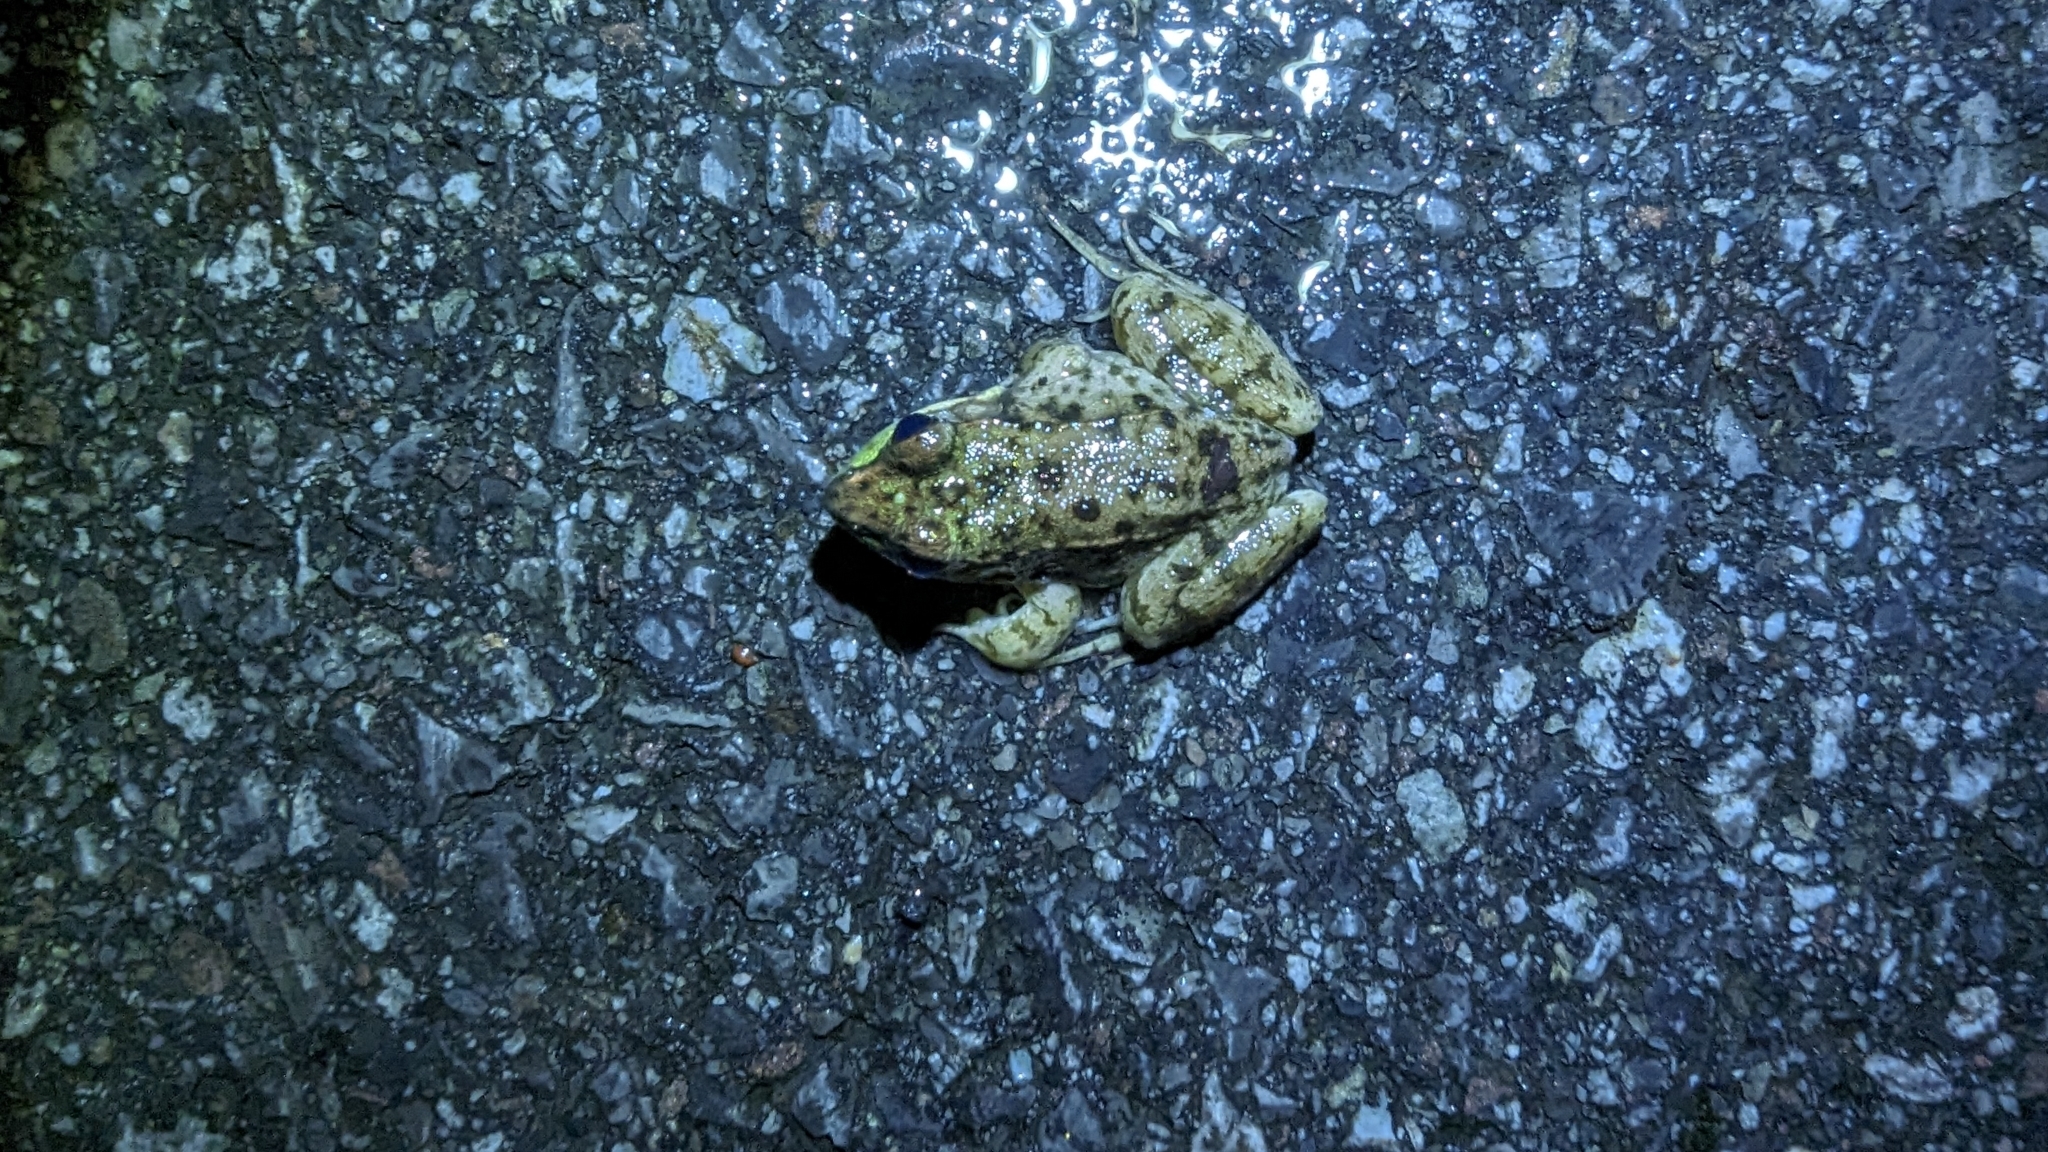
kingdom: Animalia
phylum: Chordata
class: Amphibia
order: Anura
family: Ranidae
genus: Lithobates
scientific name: Lithobates clamitans
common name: Green frog
